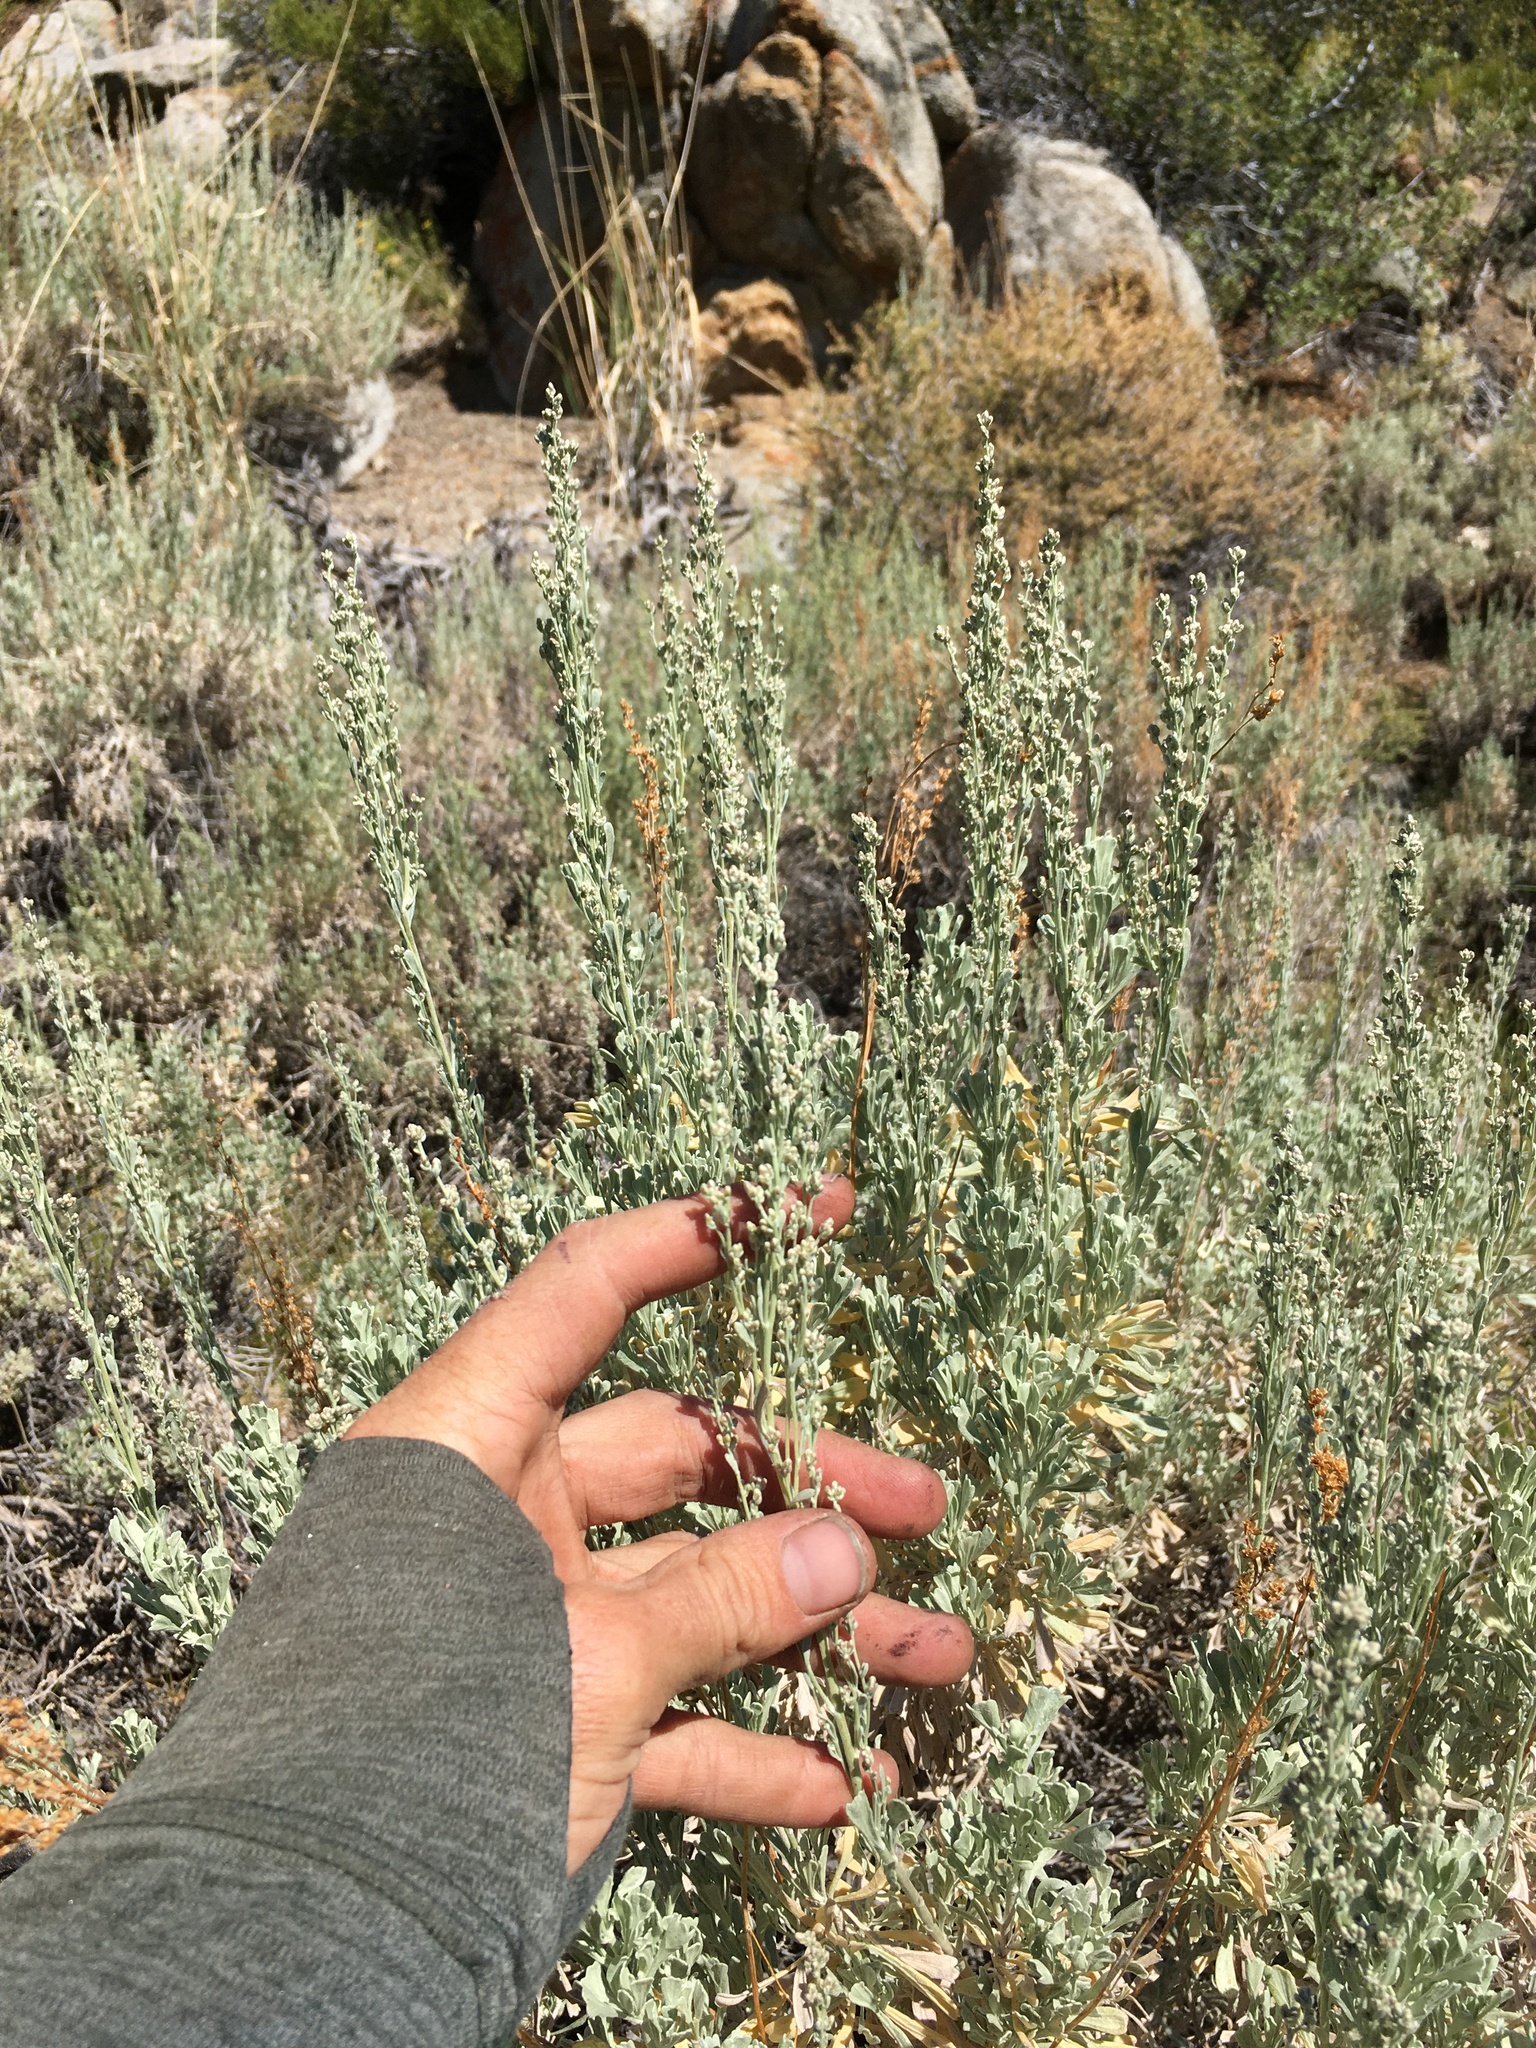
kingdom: Plantae
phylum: Tracheophyta
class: Magnoliopsida
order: Asterales
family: Asteraceae
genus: Artemisia
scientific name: Artemisia tridentata
